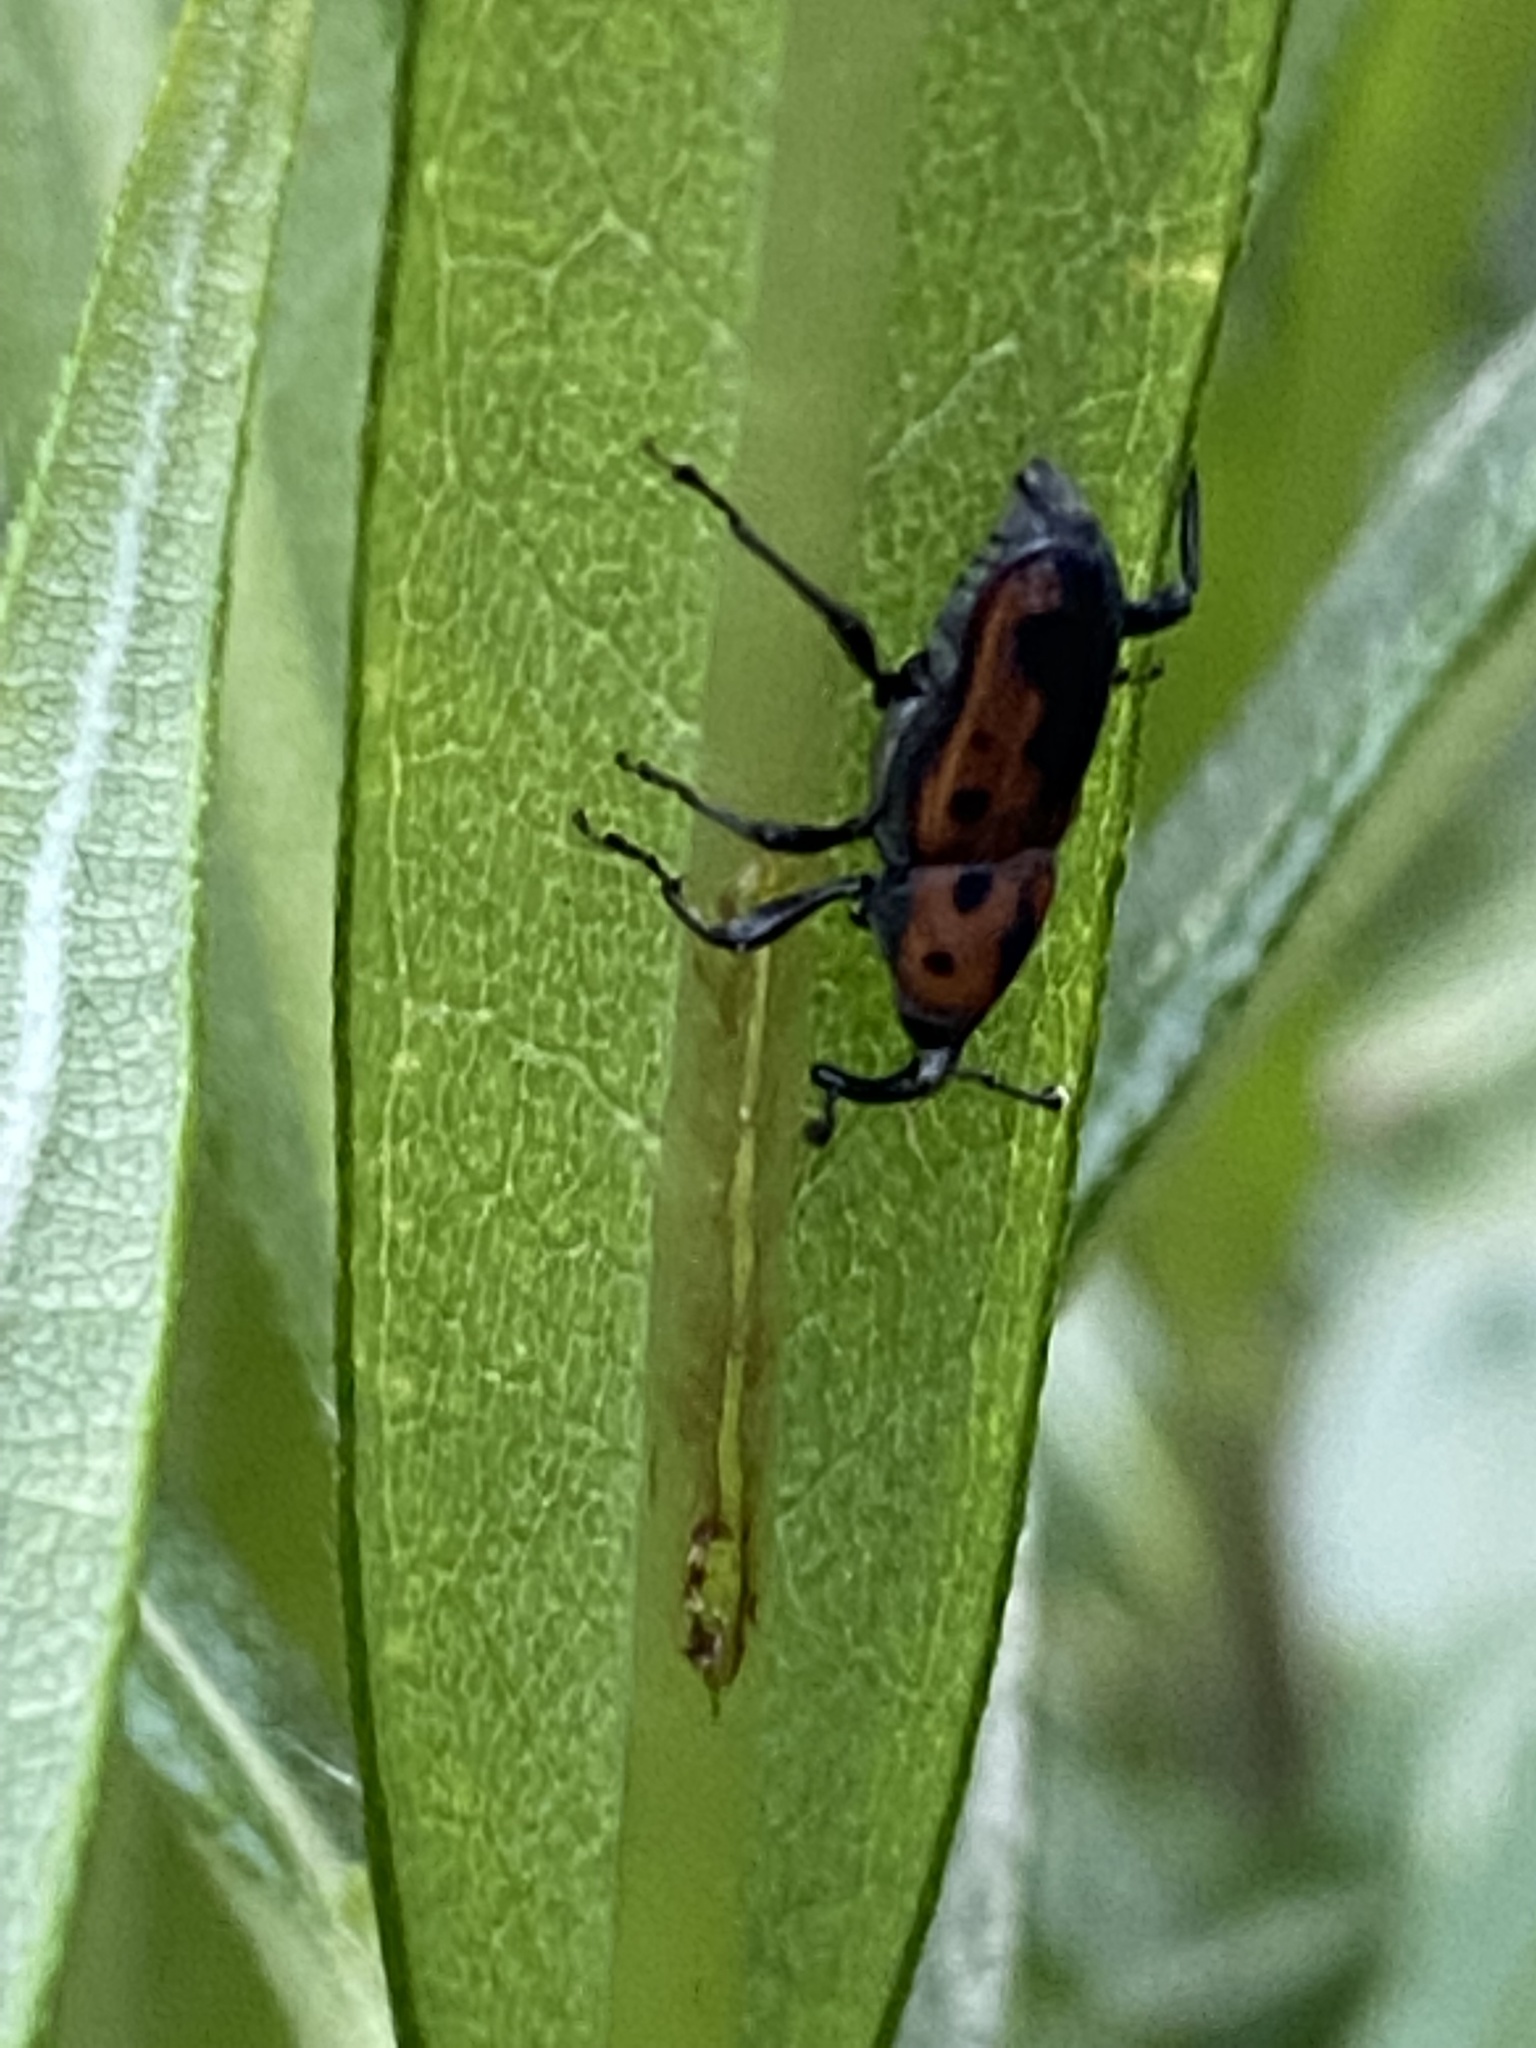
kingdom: Animalia
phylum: Arthropoda
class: Insecta
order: Coleoptera
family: Dryophthoridae
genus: Rhodobaenus
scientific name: Rhodobaenus quinquepunctatus
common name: Cocklebur weevil
